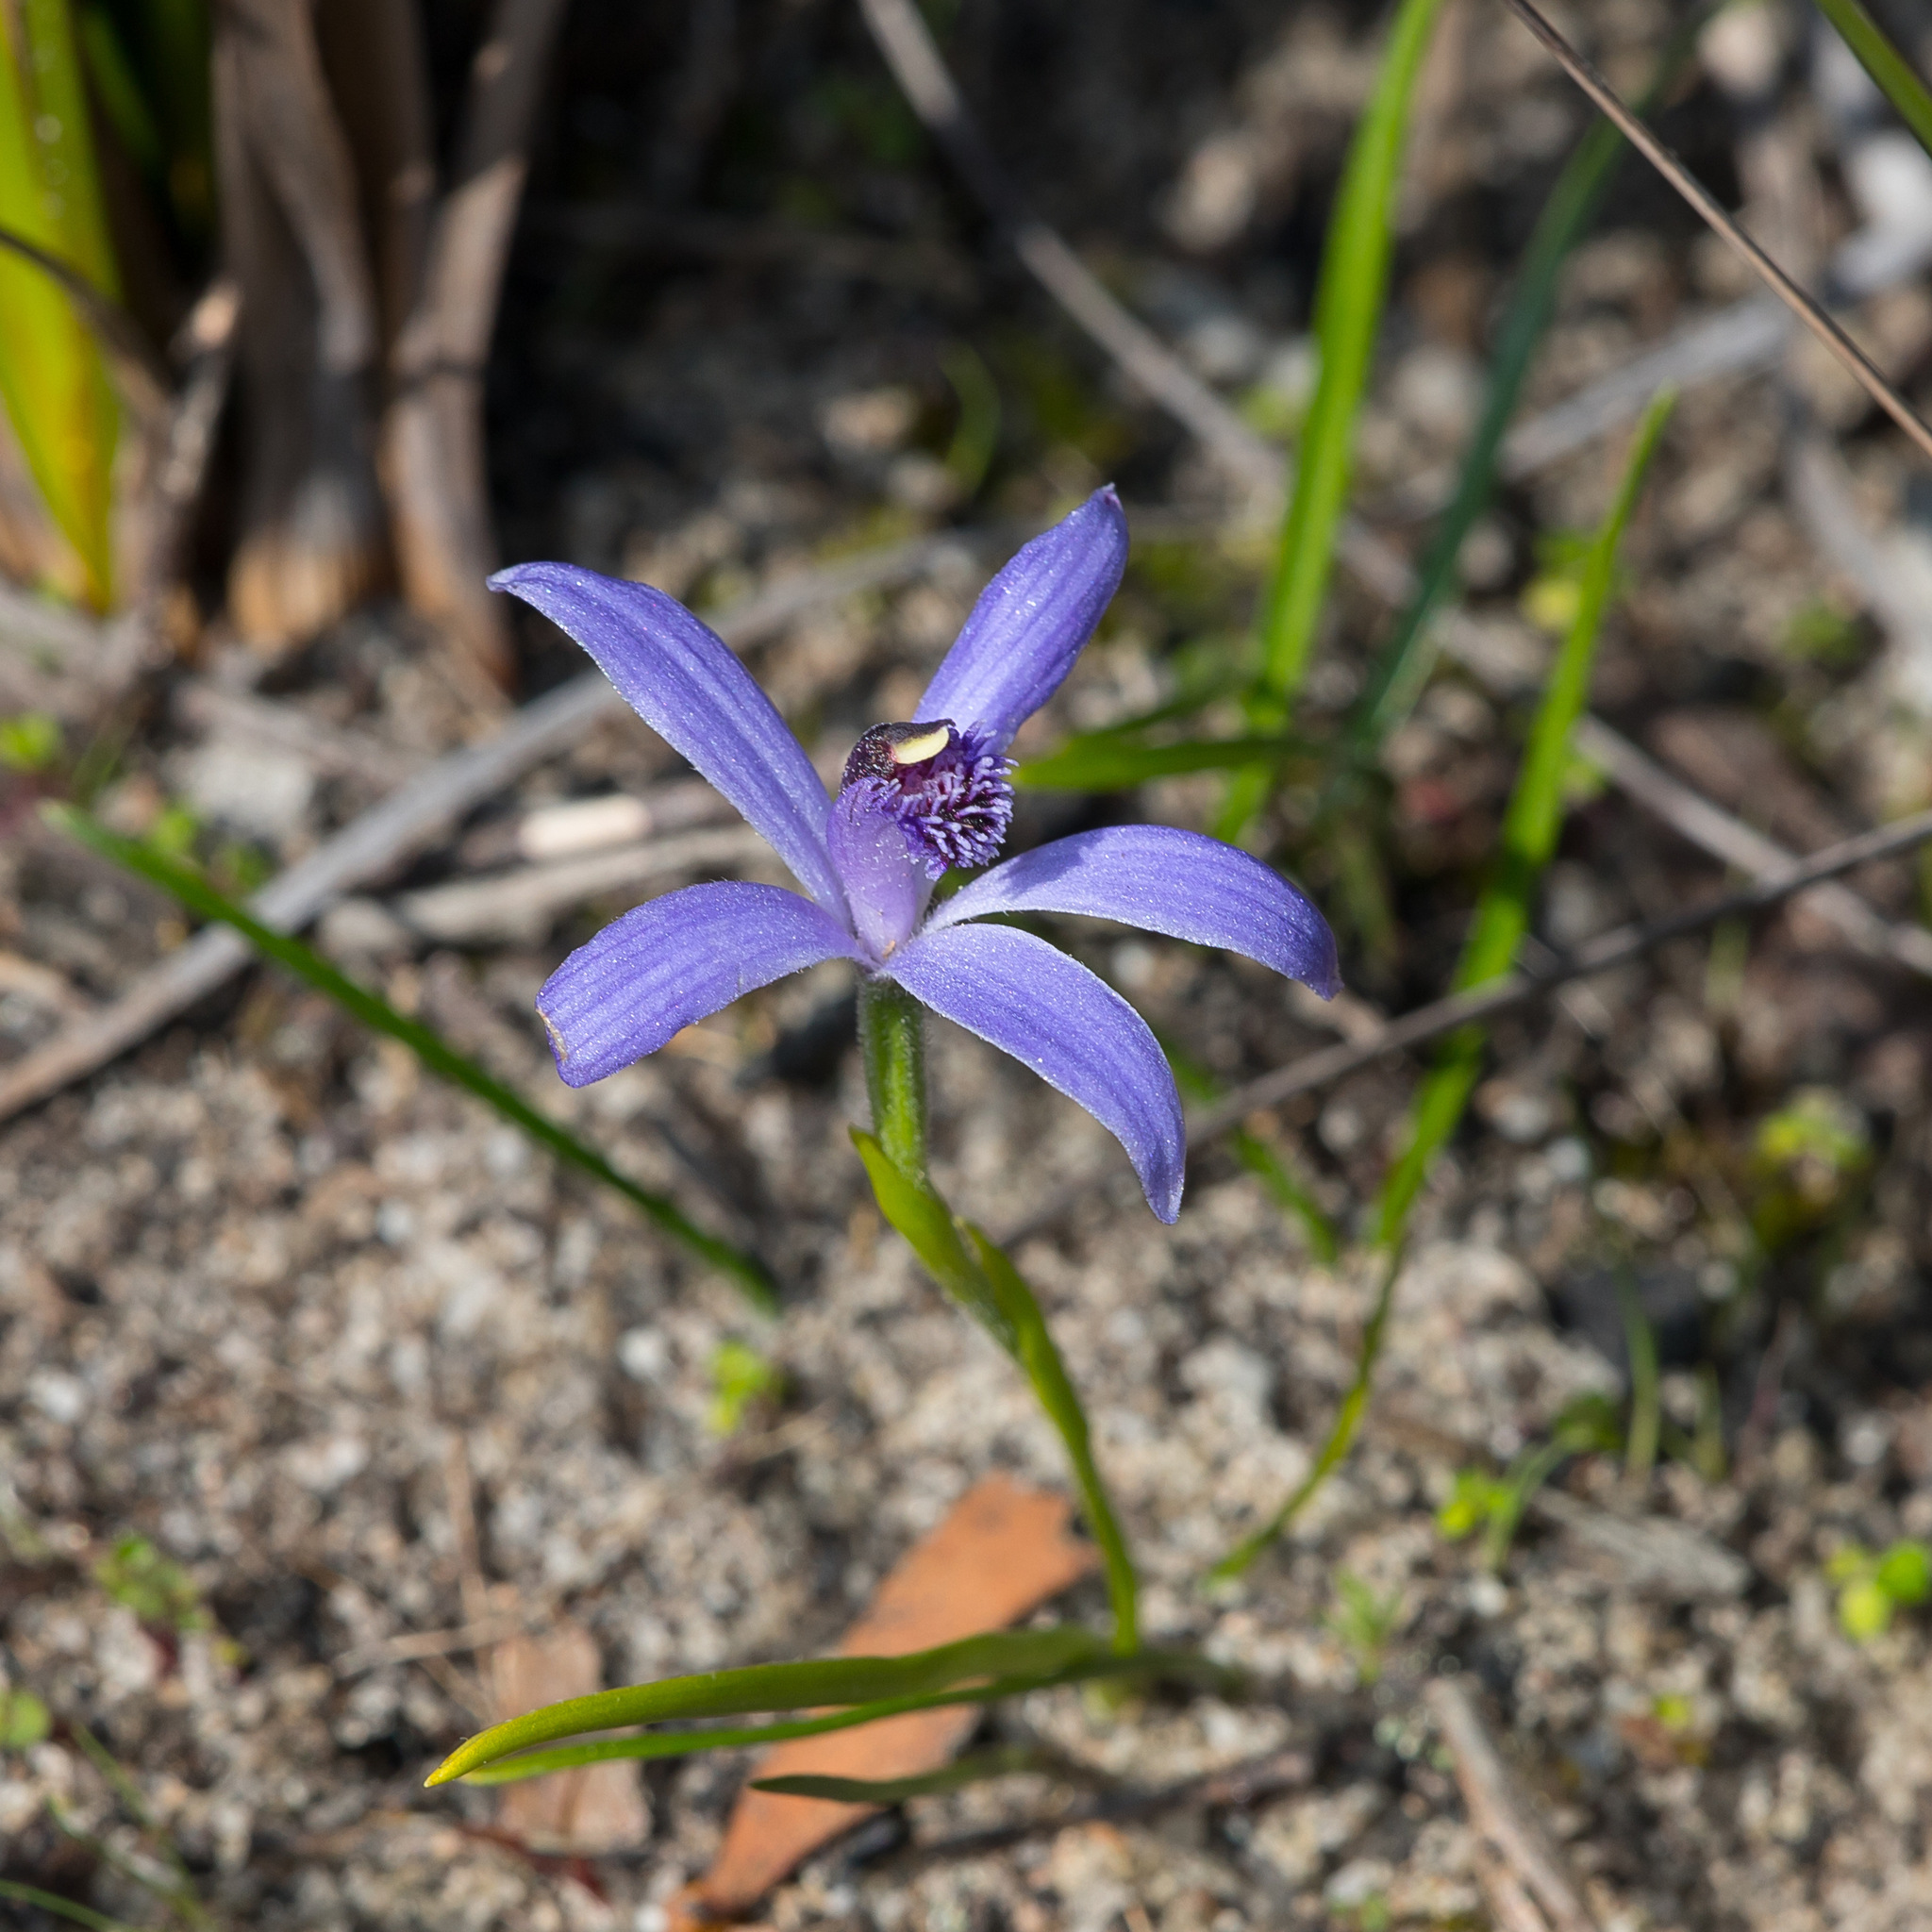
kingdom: Plantae
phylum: Tracheophyta
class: Liliopsida
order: Asparagales
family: Orchidaceae
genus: Pheladenia
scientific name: Pheladenia deformis
